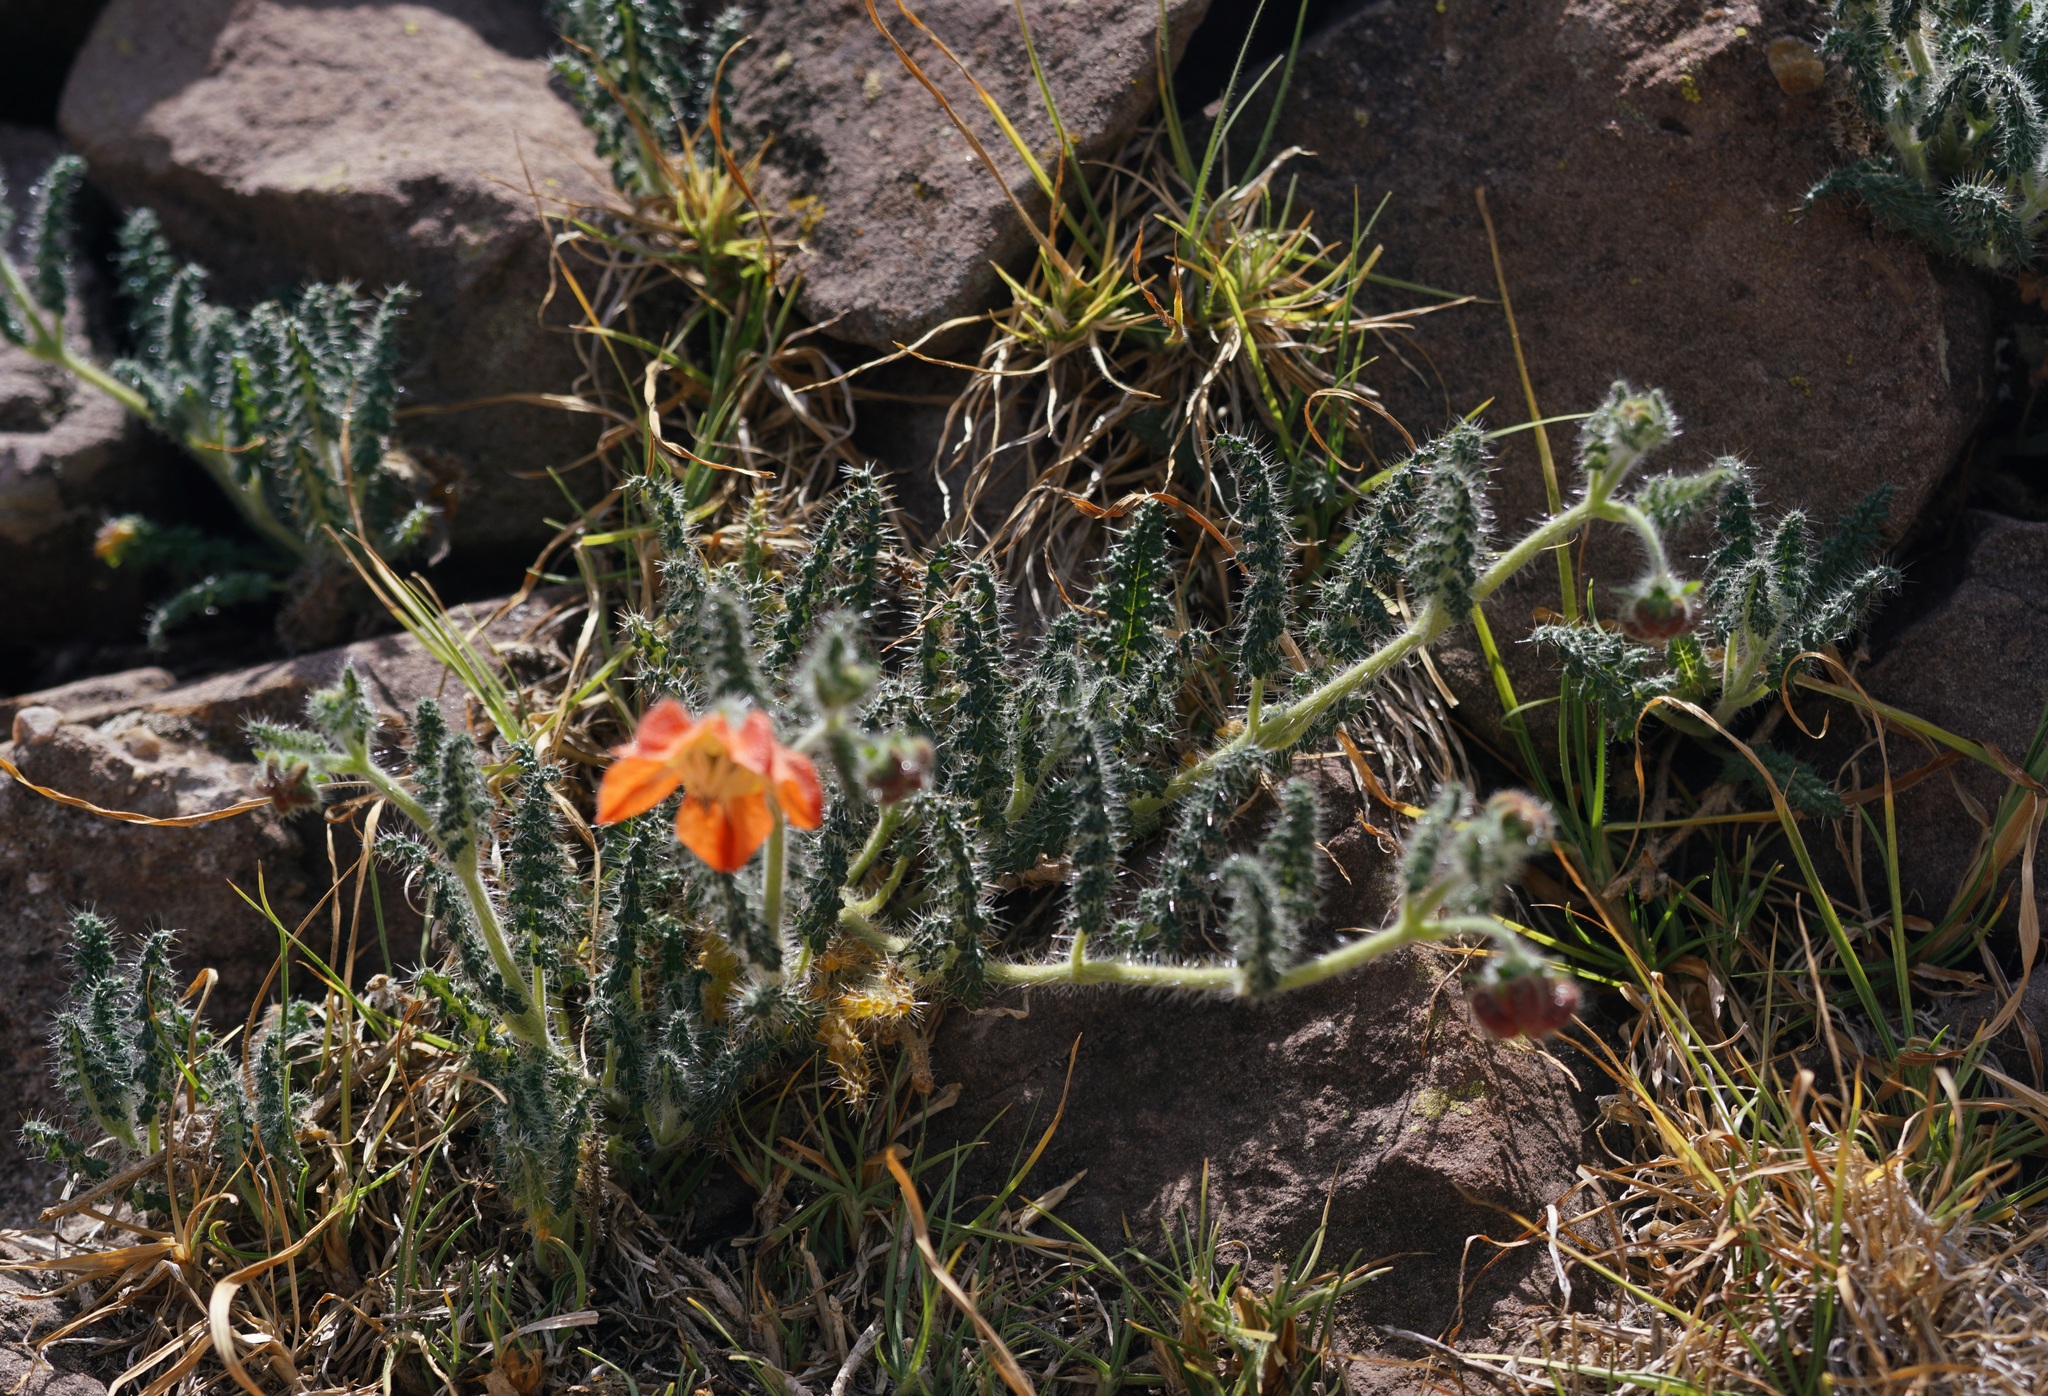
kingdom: Plantae
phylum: Tracheophyta
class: Magnoliopsida
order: Cornales
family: Loasaceae
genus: Caiophora
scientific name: Caiophora pentlandii
